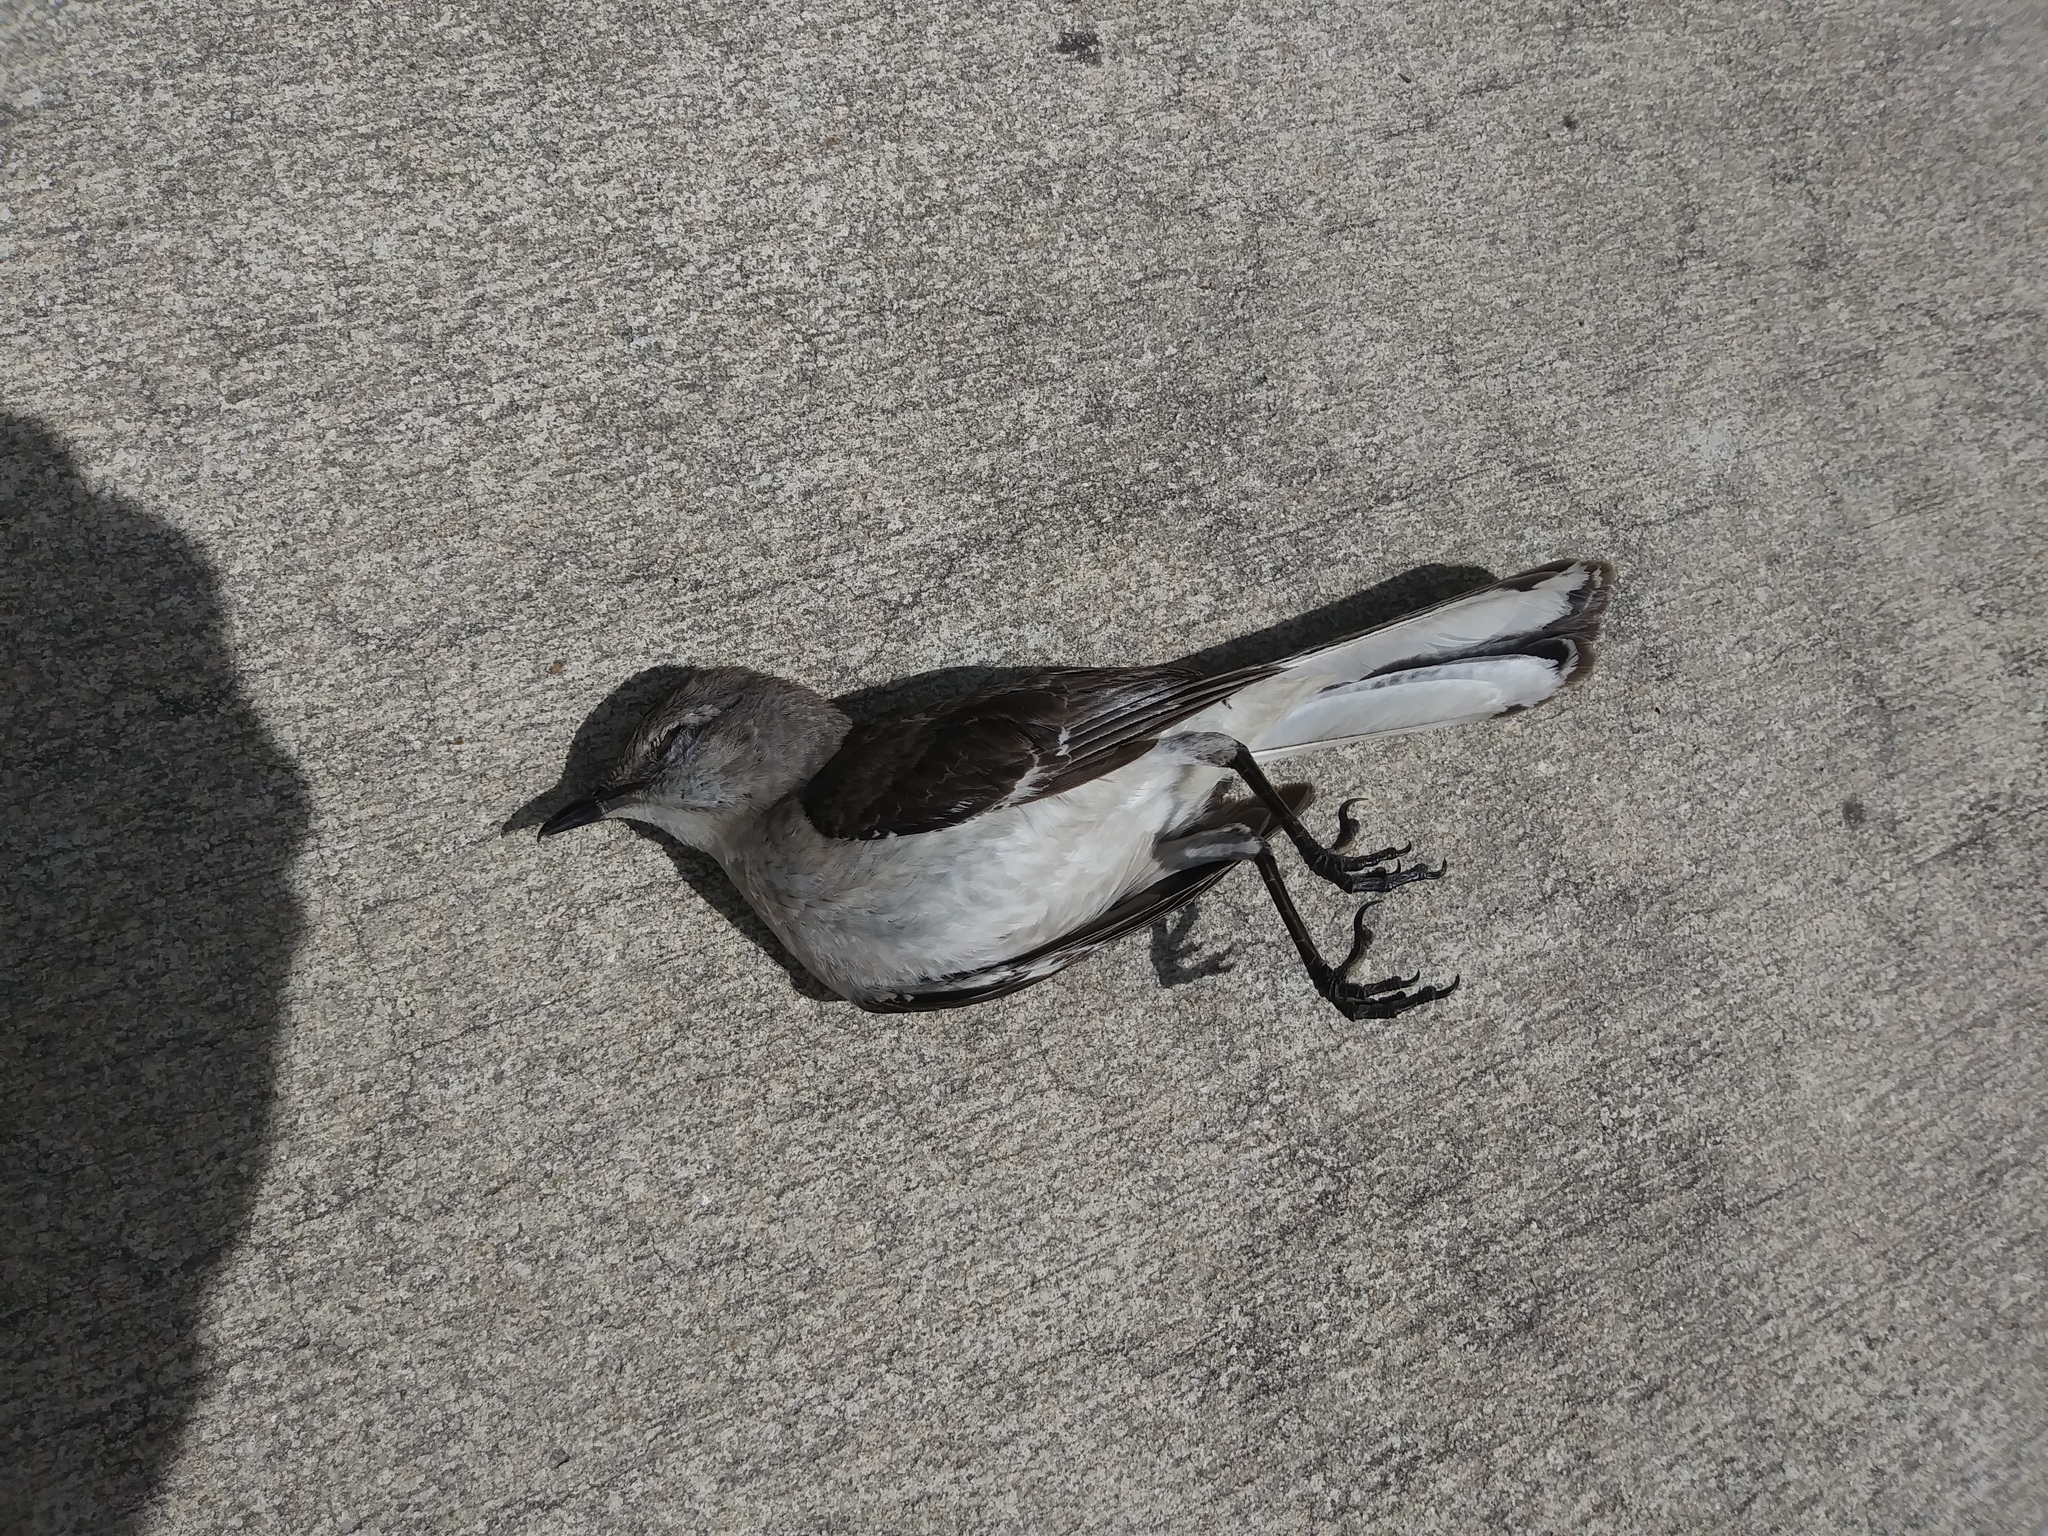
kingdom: Animalia
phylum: Chordata
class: Aves
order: Passeriformes
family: Mimidae
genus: Mimus
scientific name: Mimus polyglottos
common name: Northern mockingbird
